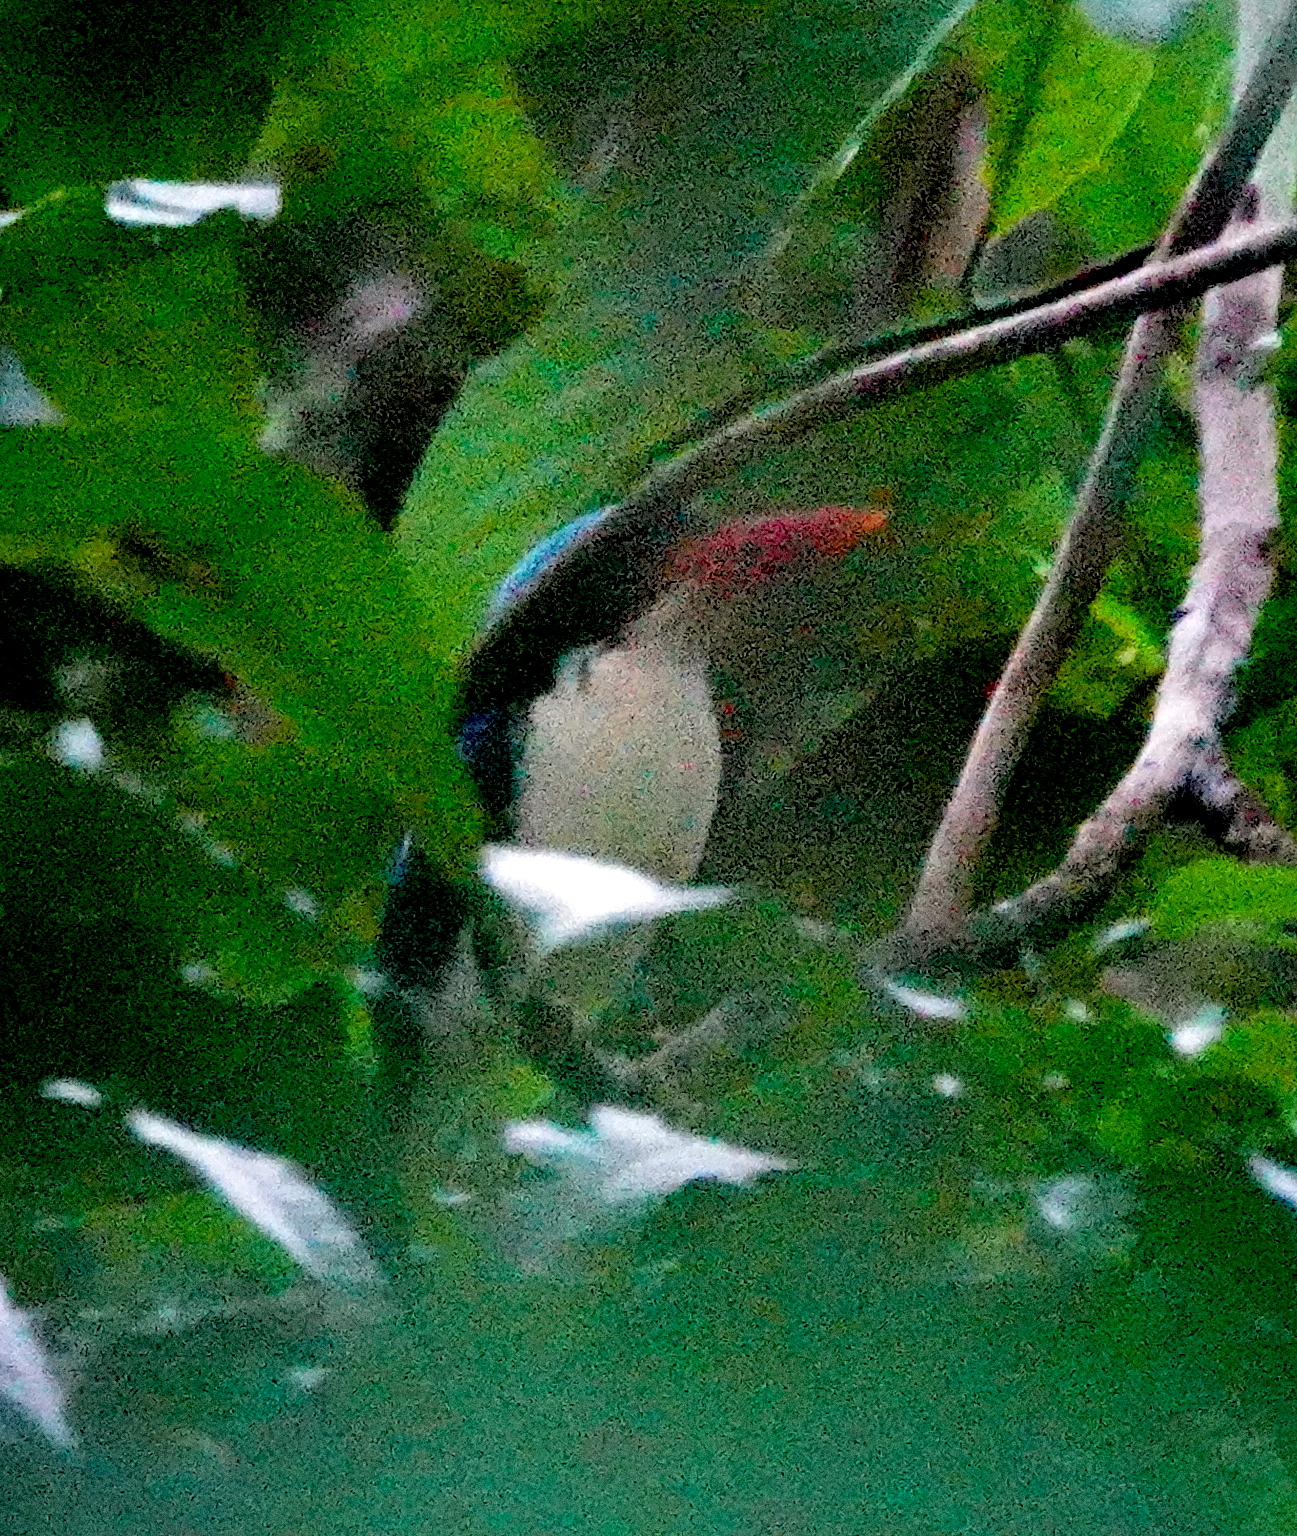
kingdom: Animalia
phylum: Chordata
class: Aves
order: Coraciiformes
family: Alcedinidae
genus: Tanysiptera
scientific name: Tanysiptera galatea
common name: Common paradise-kingfisher
